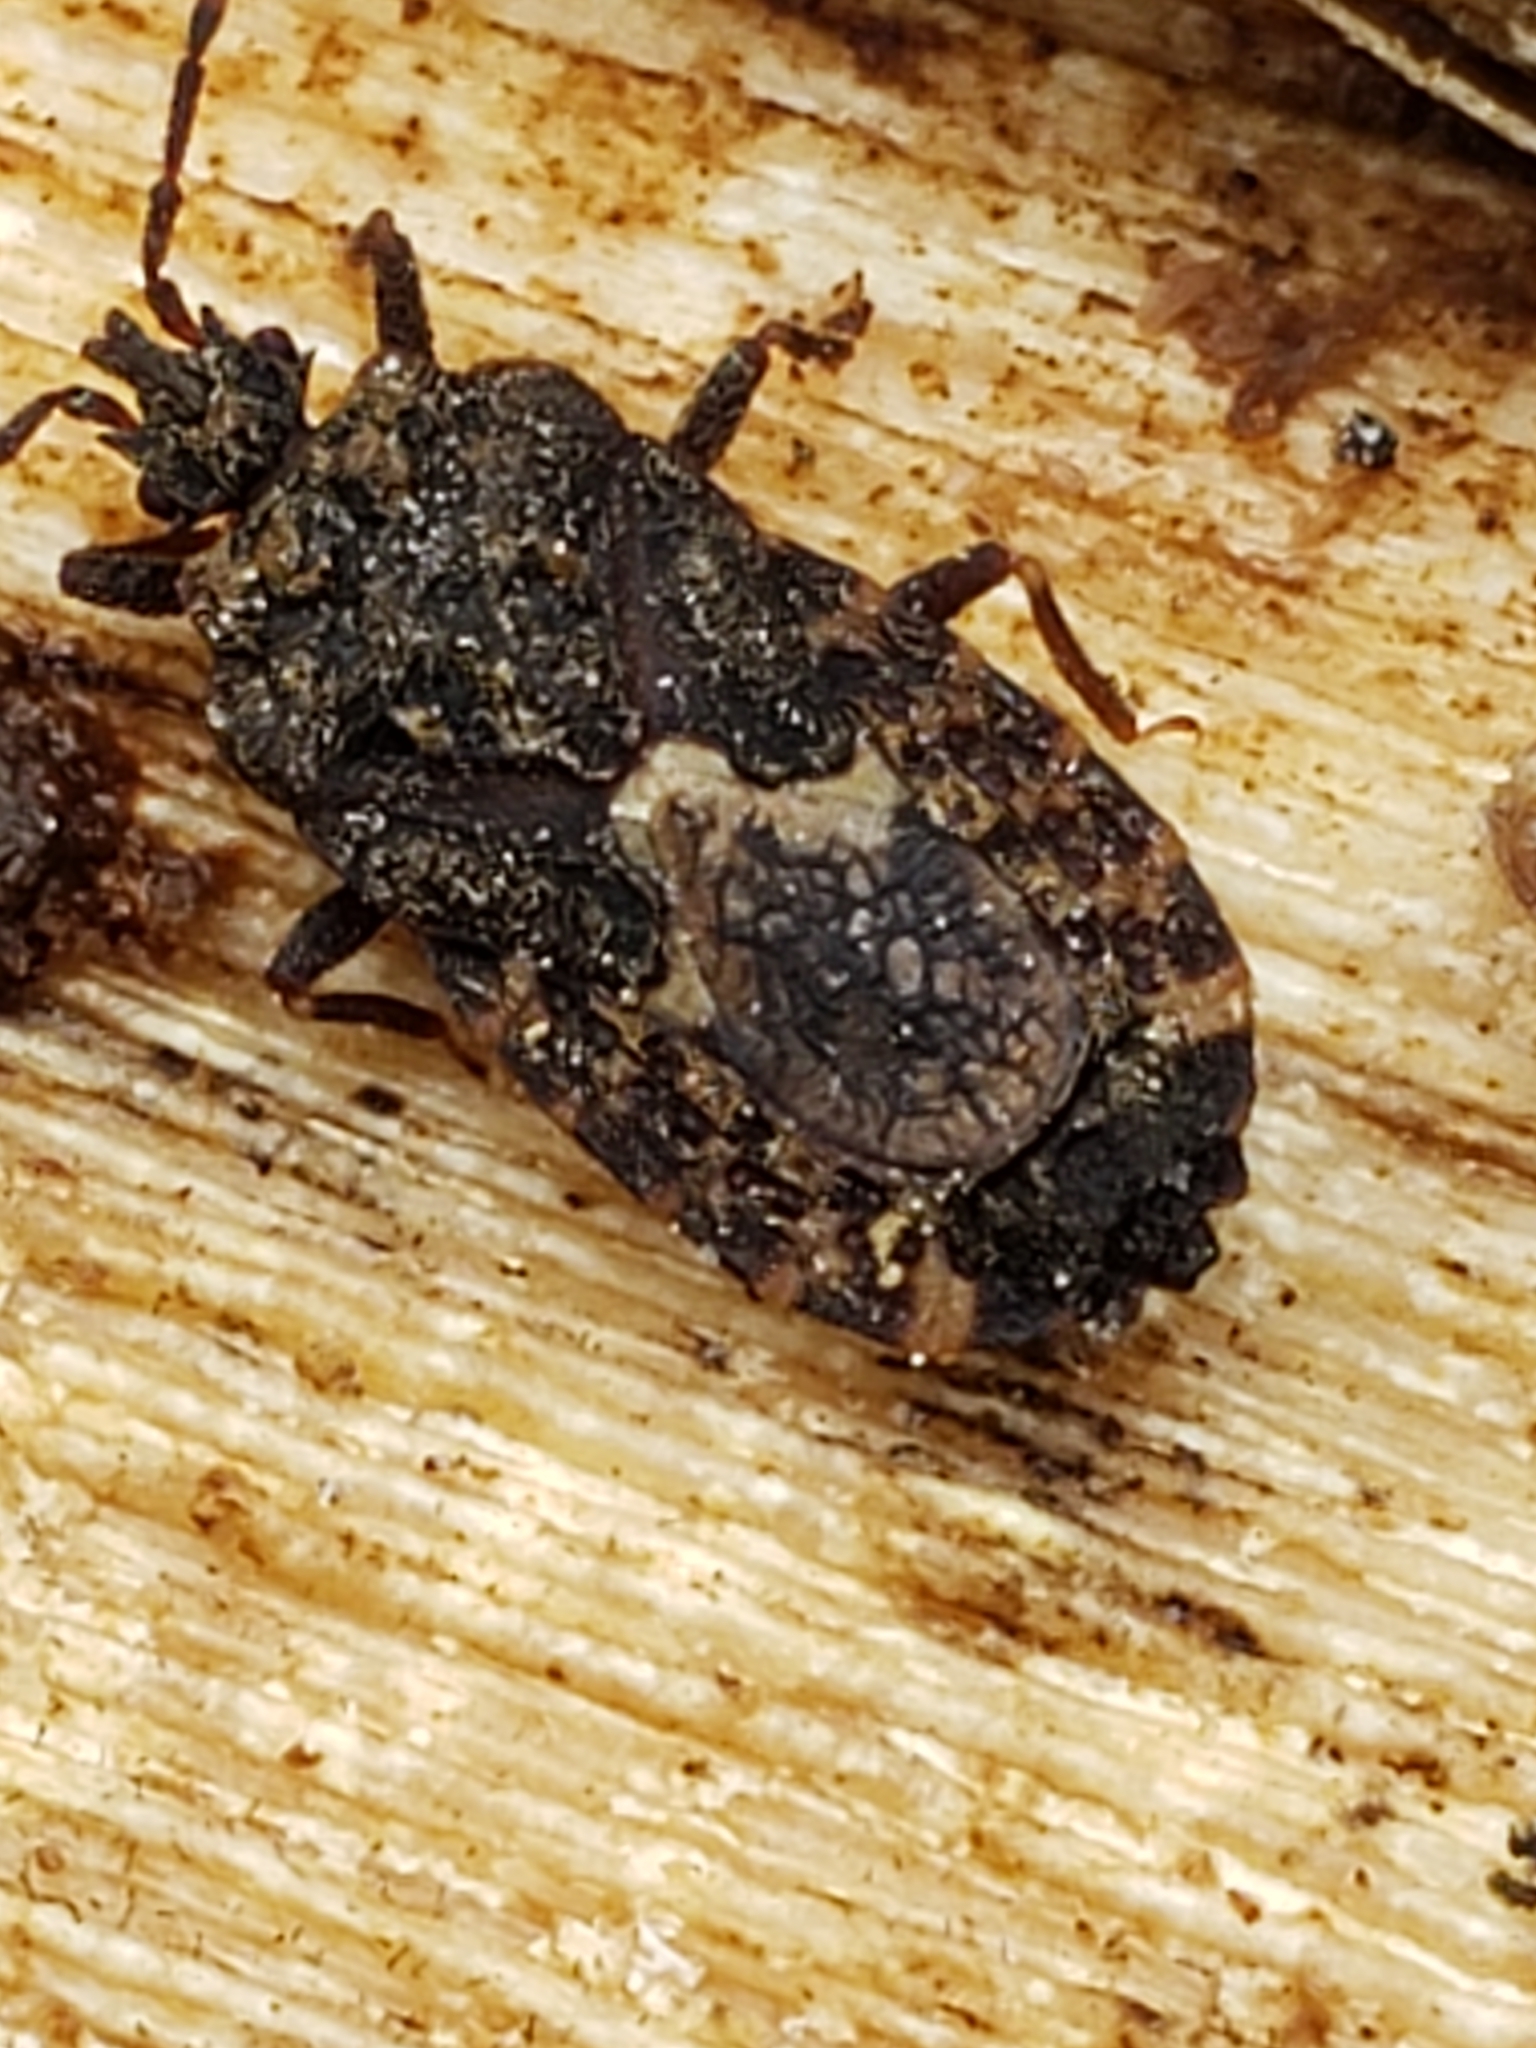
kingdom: Animalia
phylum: Arthropoda
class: Insecta
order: Hemiptera
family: Aradidae
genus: Mezira
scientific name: Mezira
